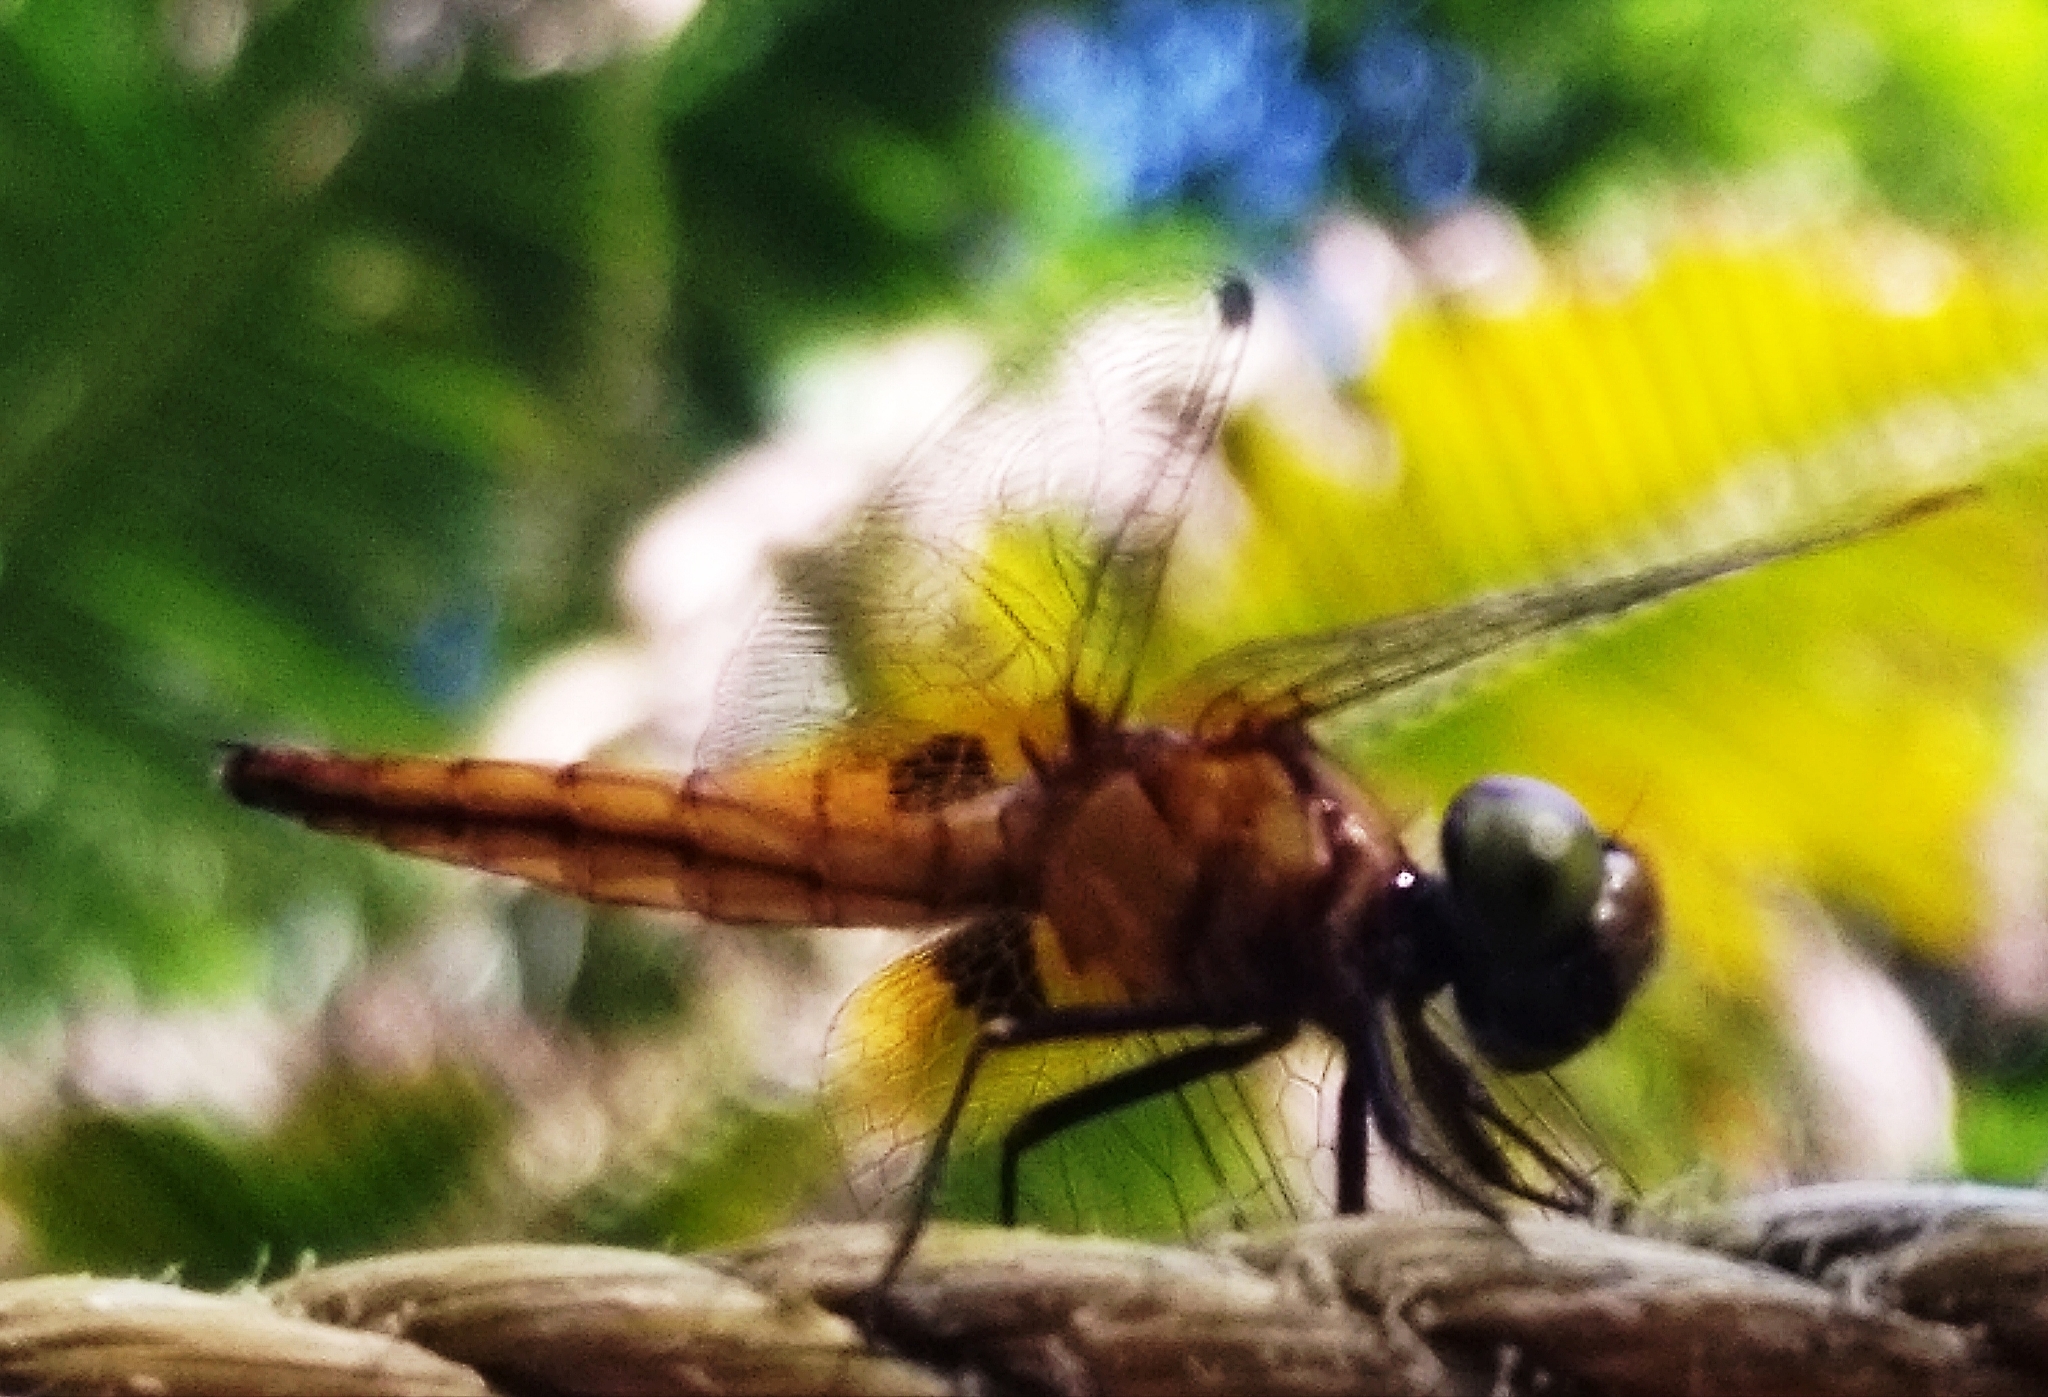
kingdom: Animalia
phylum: Arthropoda
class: Insecta
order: Odonata
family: Libellulidae
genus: Aethriamanta
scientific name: Aethriamanta brevipennis
